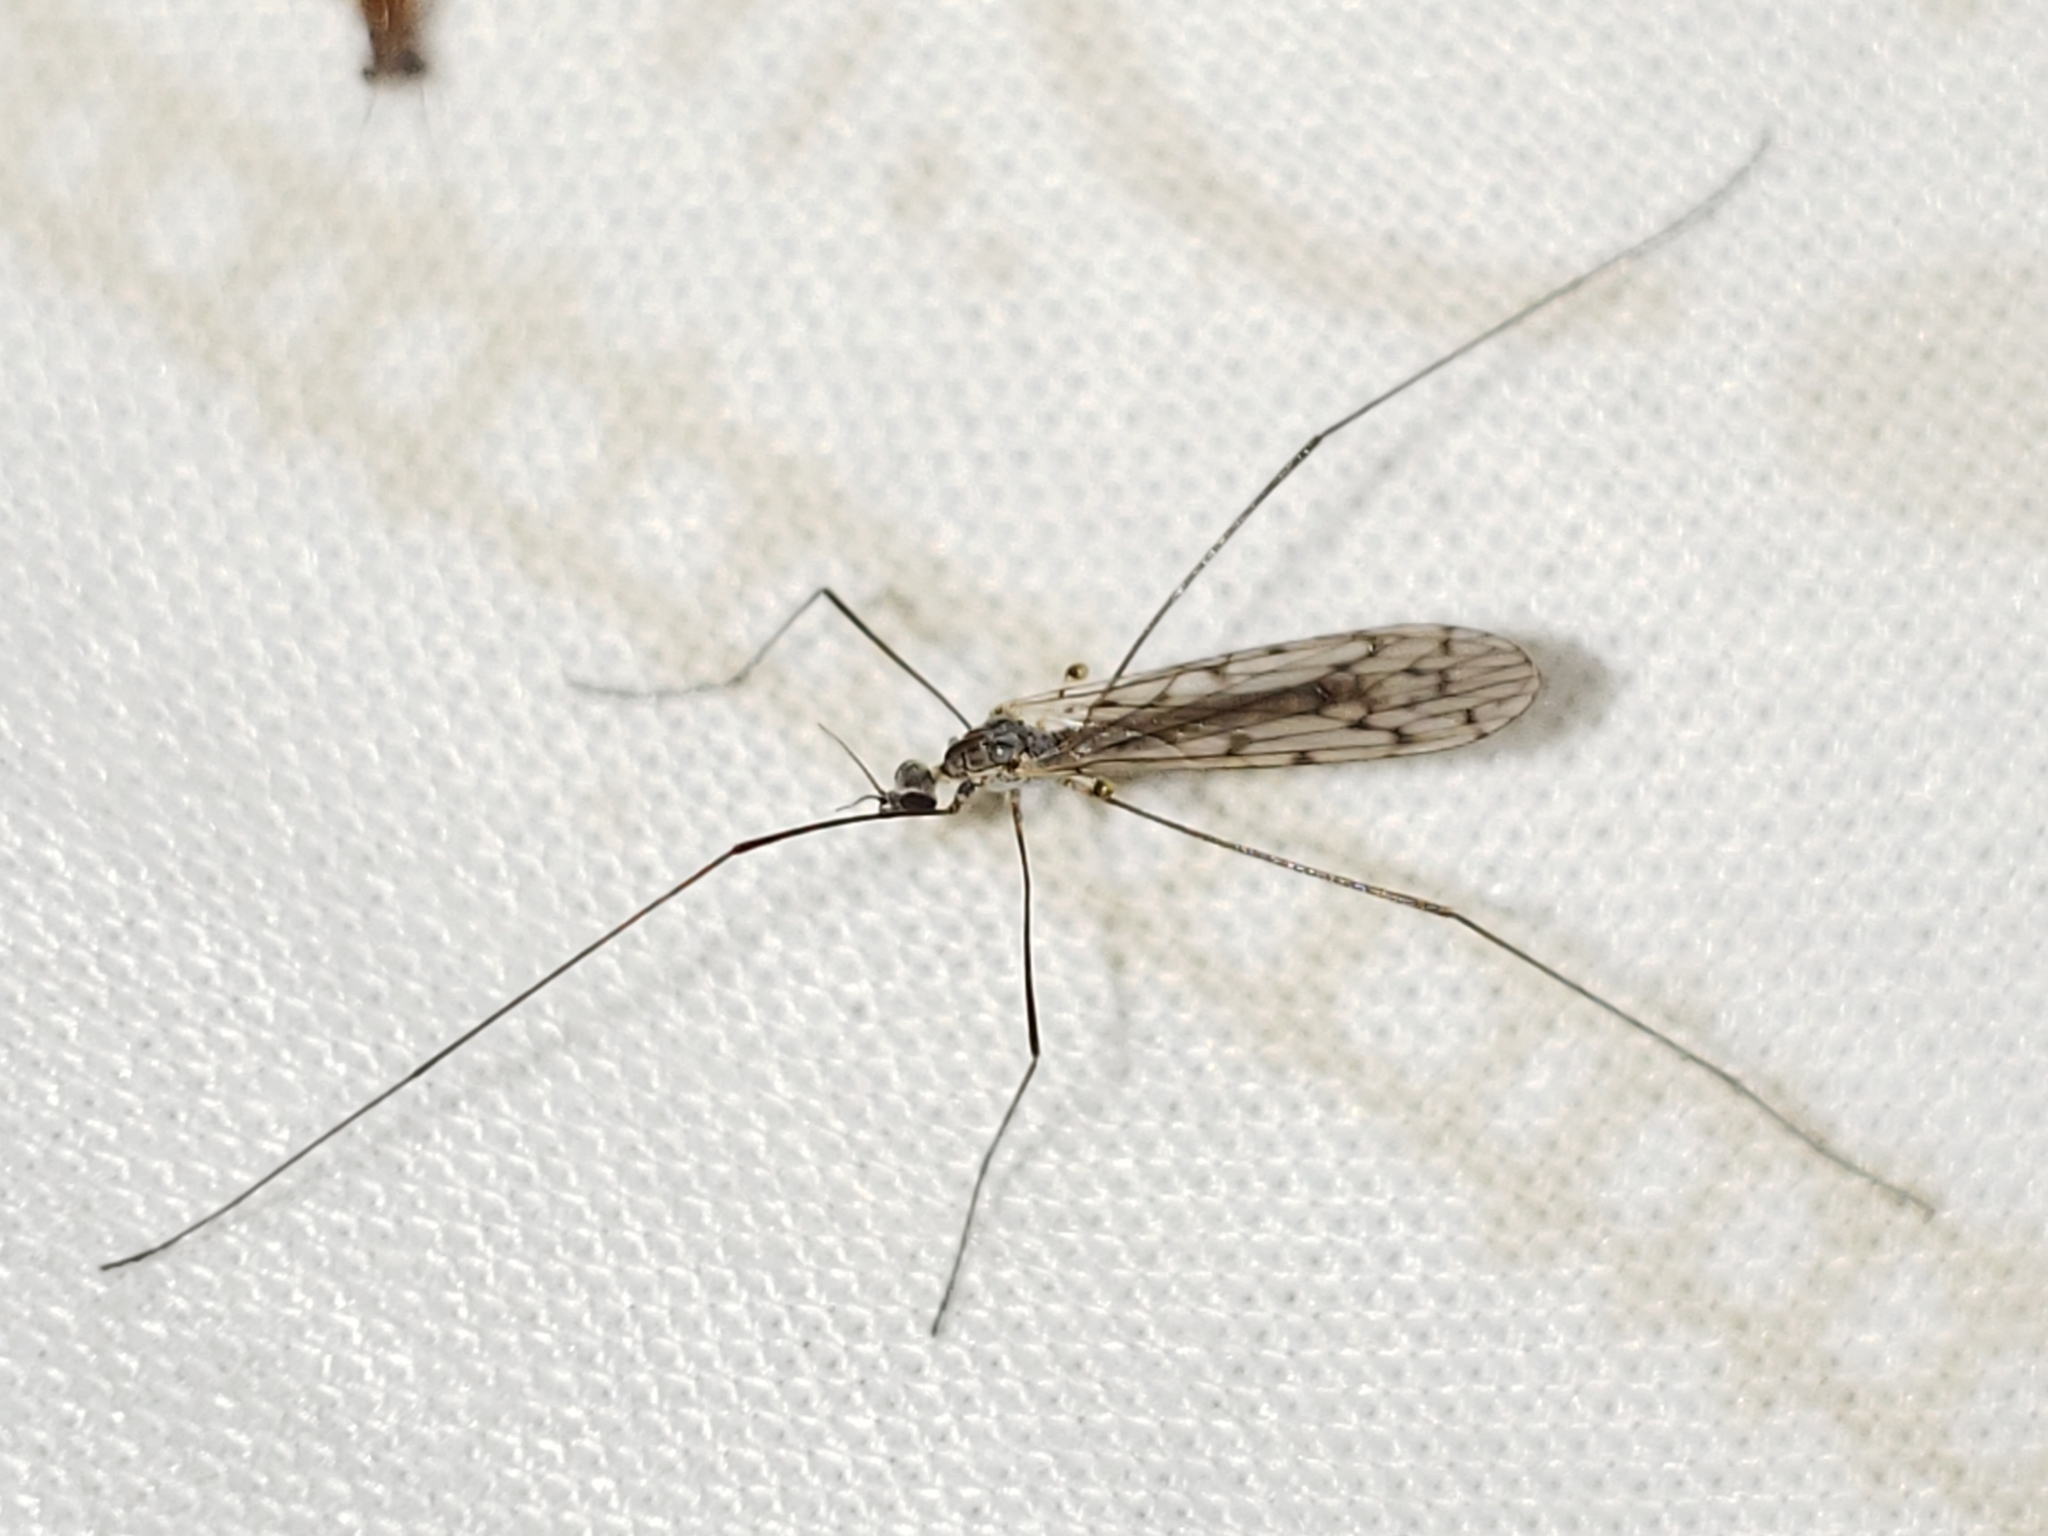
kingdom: Animalia
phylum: Arthropoda
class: Insecta
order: Diptera
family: Limoniidae
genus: Symplecta
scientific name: Symplecta cana
